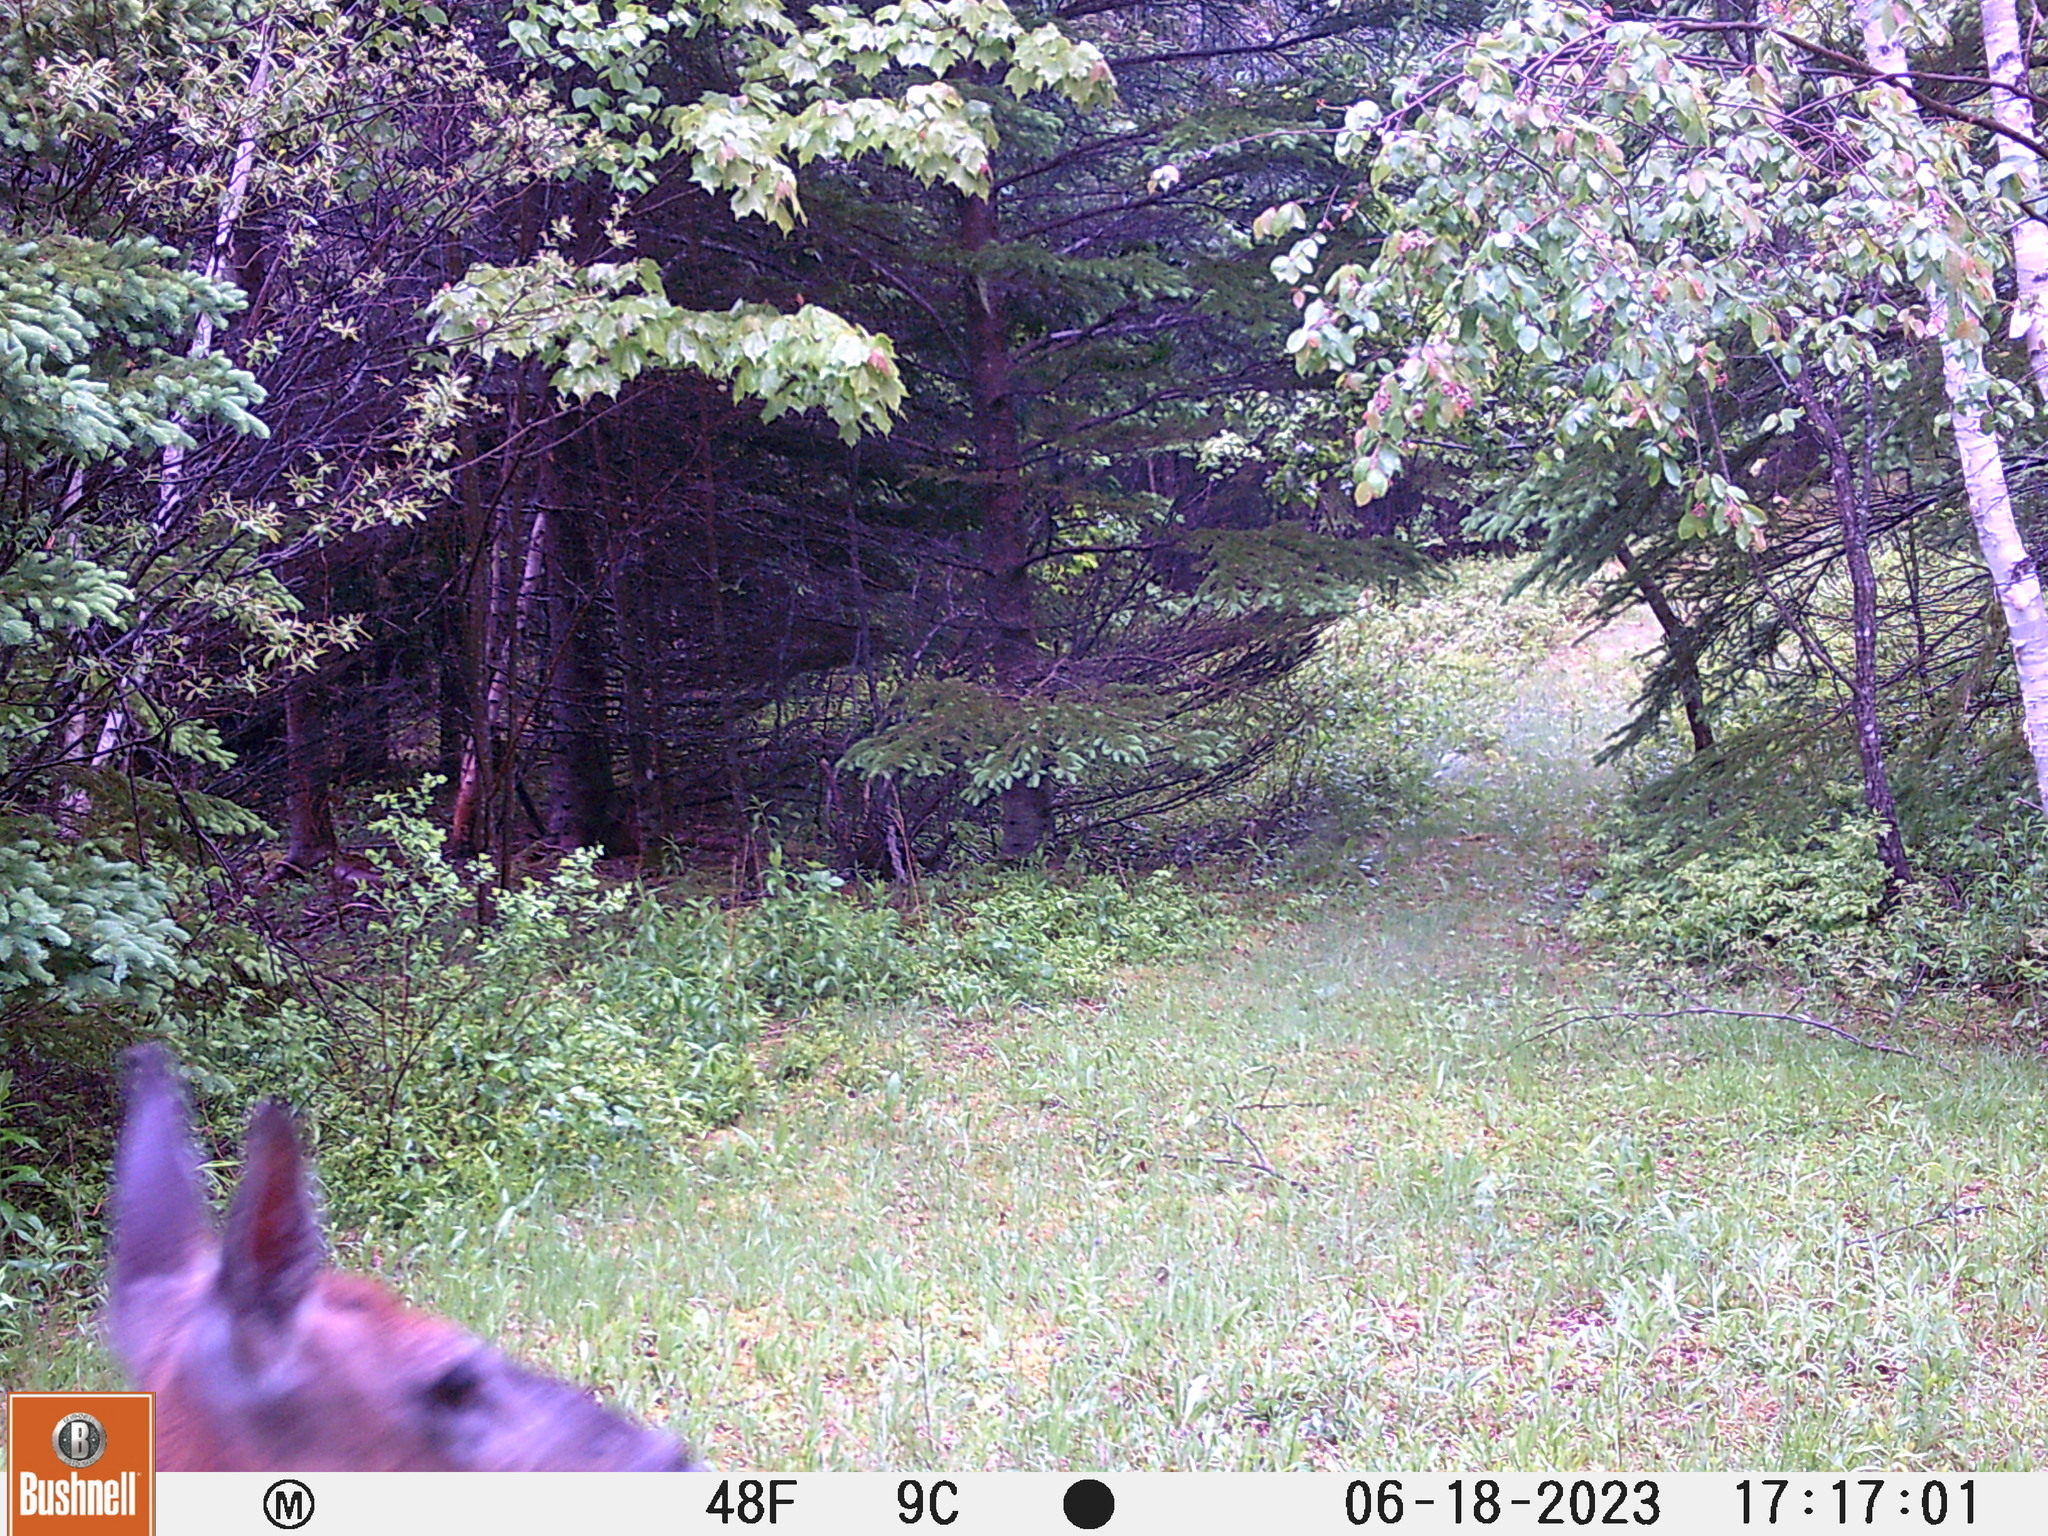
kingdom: Animalia
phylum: Chordata
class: Mammalia
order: Artiodactyla
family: Cervidae
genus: Odocoileus
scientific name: Odocoileus virginianus
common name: White-tailed deer
